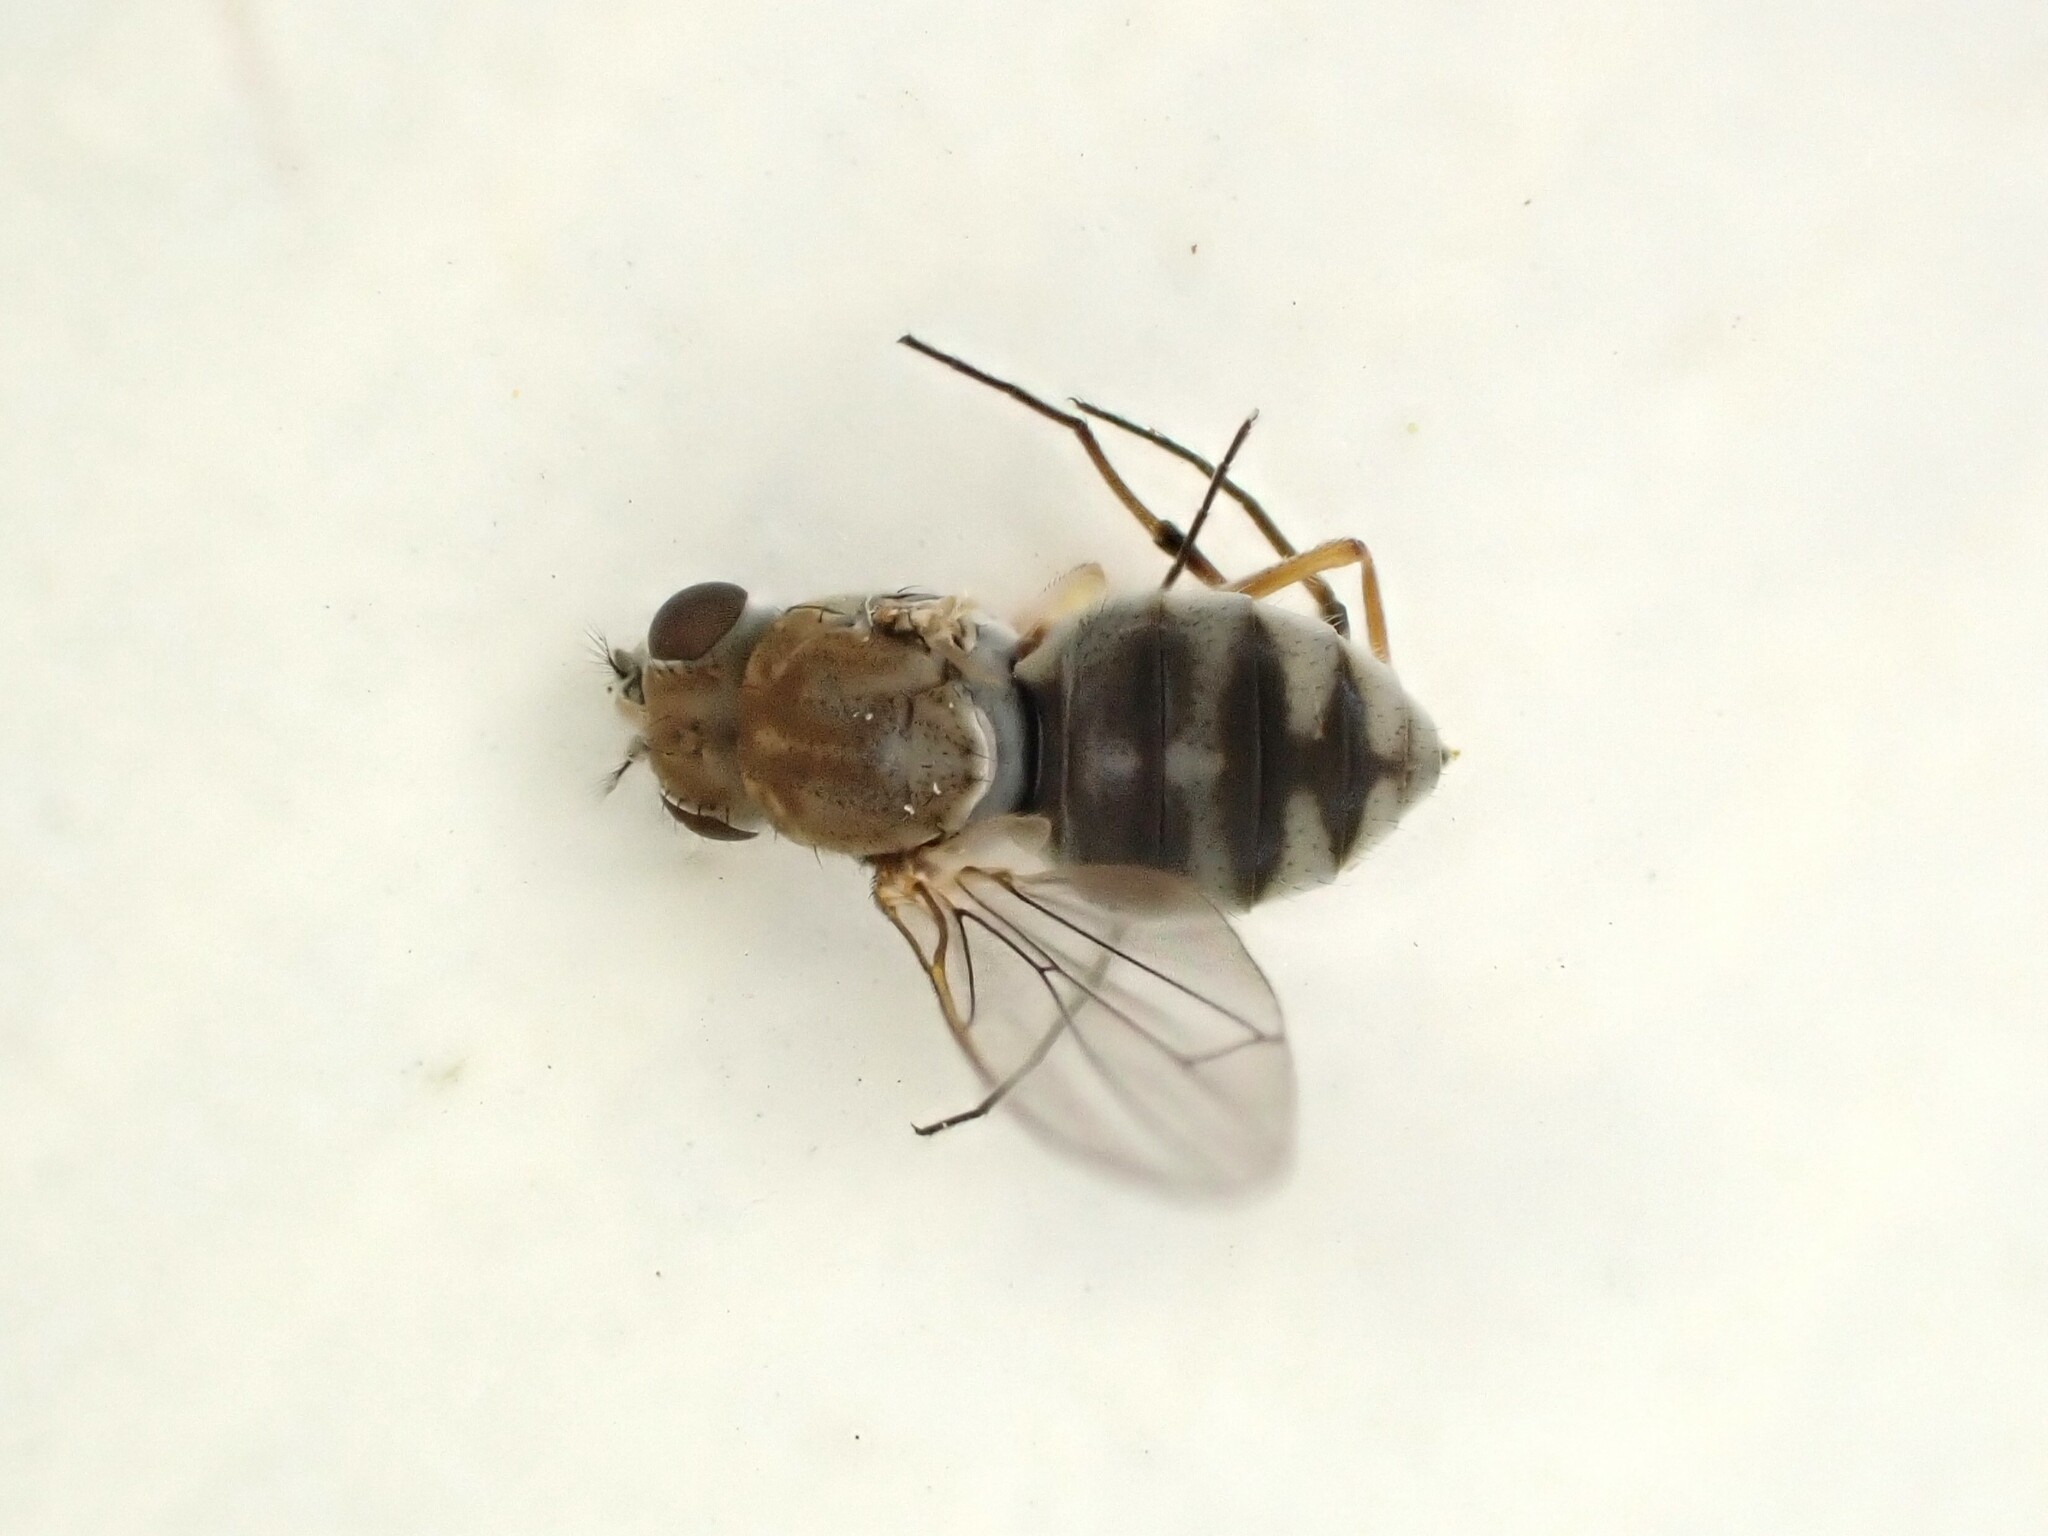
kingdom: Animalia
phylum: Arthropoda
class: Insecta
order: Diptera
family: Ephydridae
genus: Brachydeutera
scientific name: Brachydeutera sydneyensis
